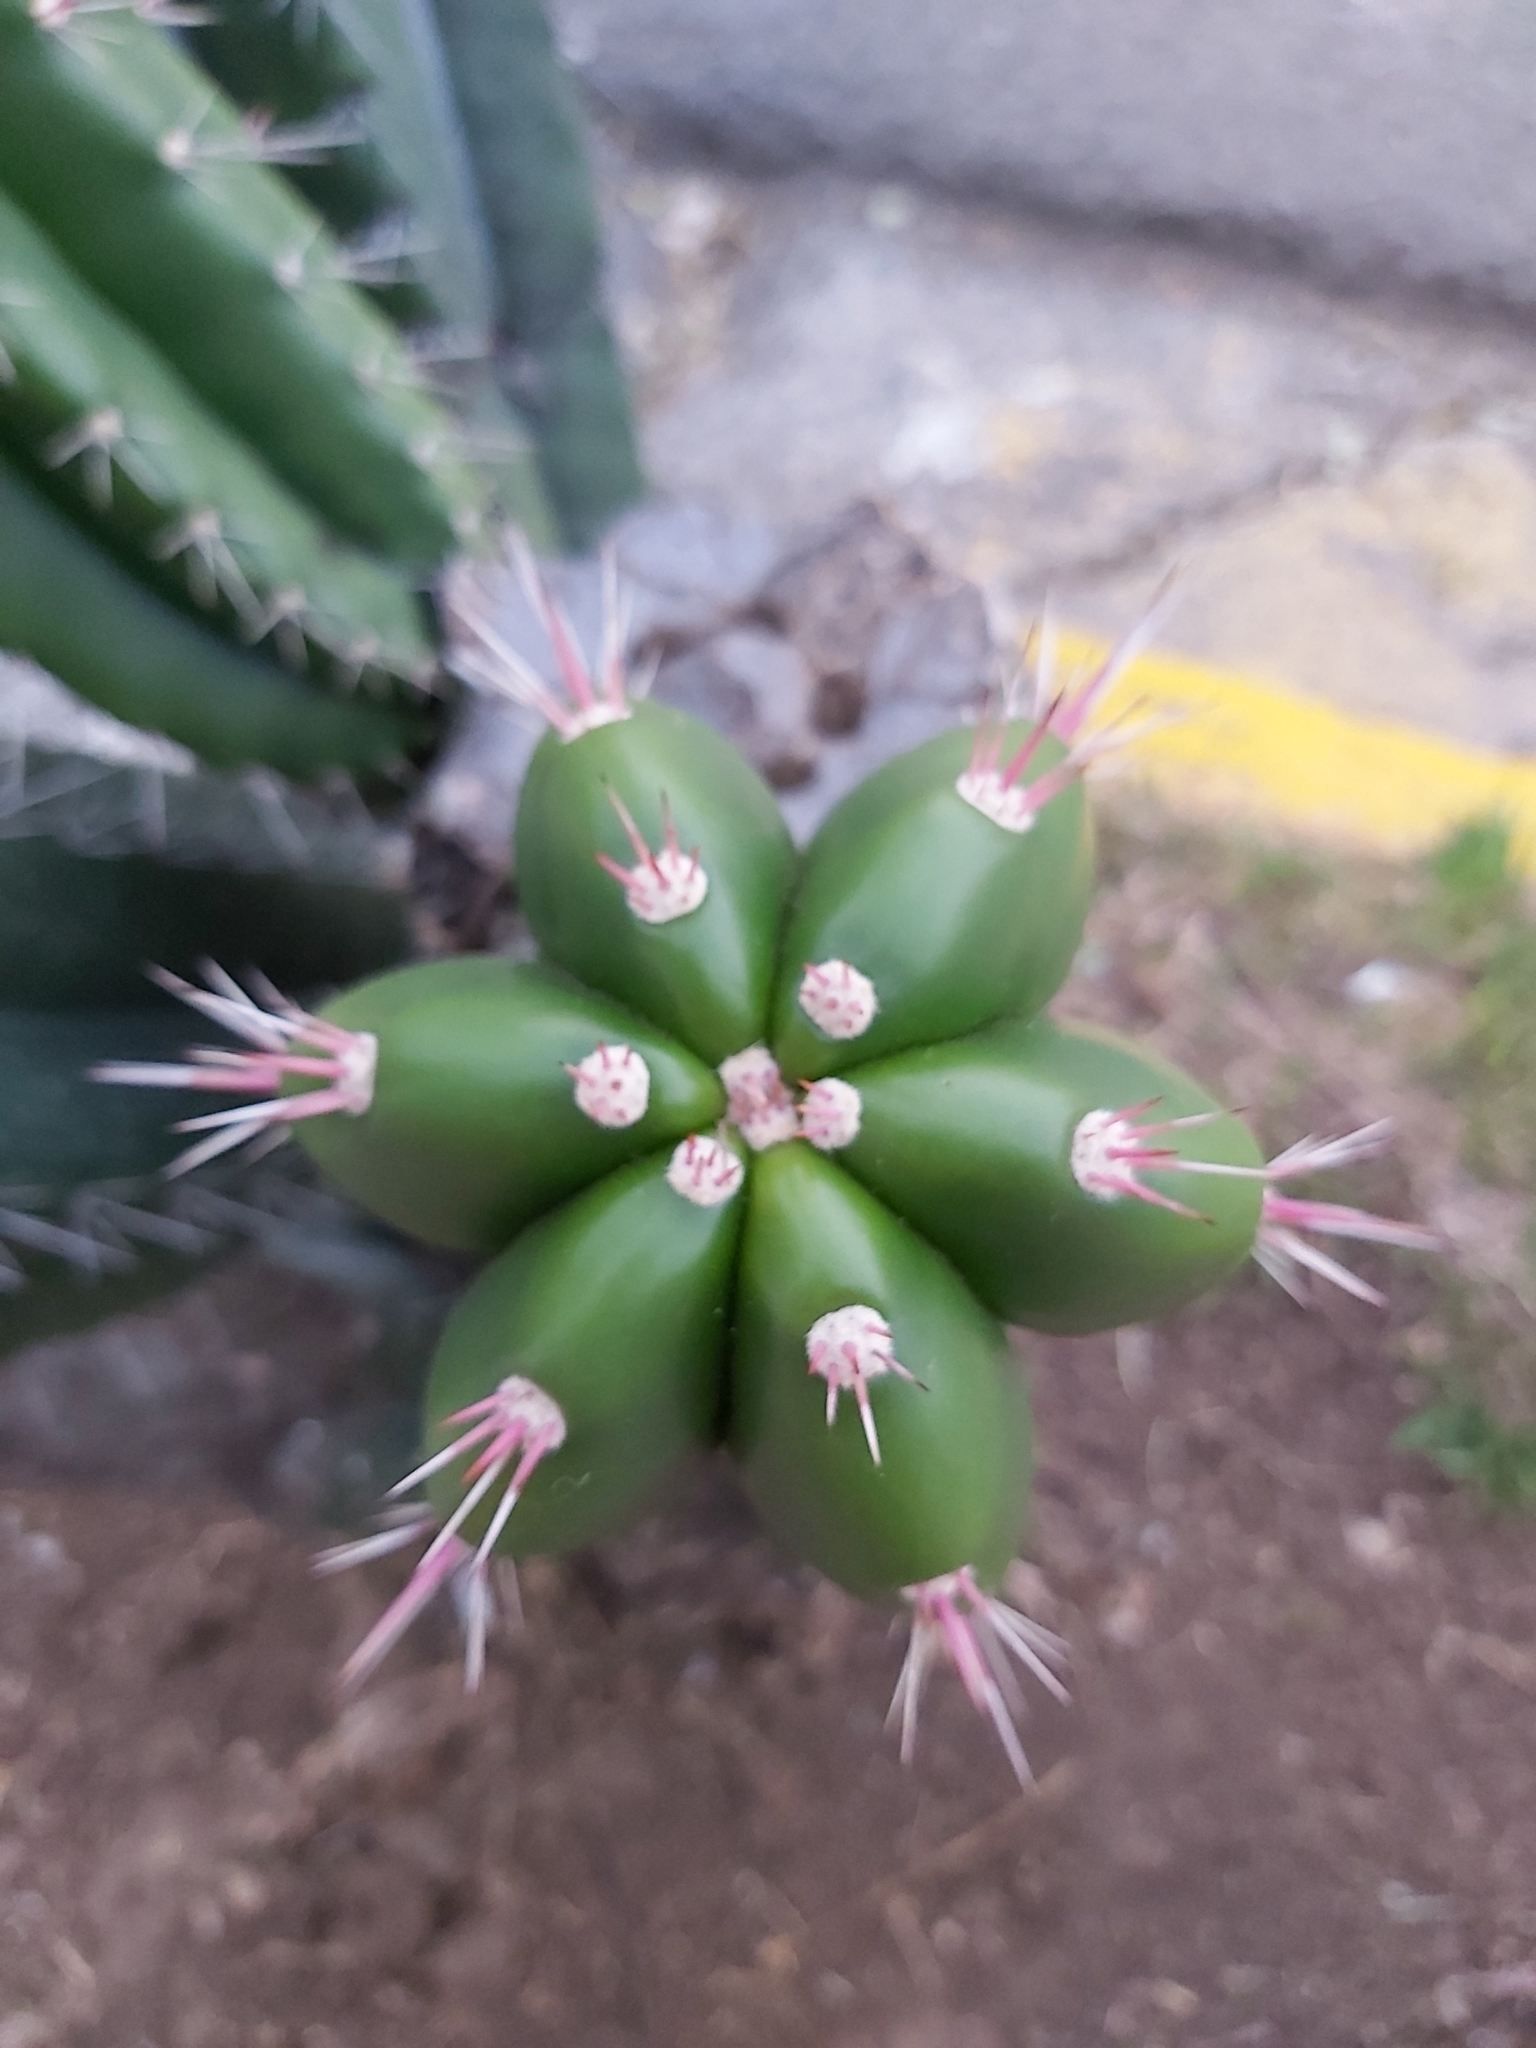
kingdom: Plantae
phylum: Tracheophyta
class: Magnoliopsida
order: Caryophyllales
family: Cactaceae
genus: Stenocereus
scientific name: Stenocereus aragonii
